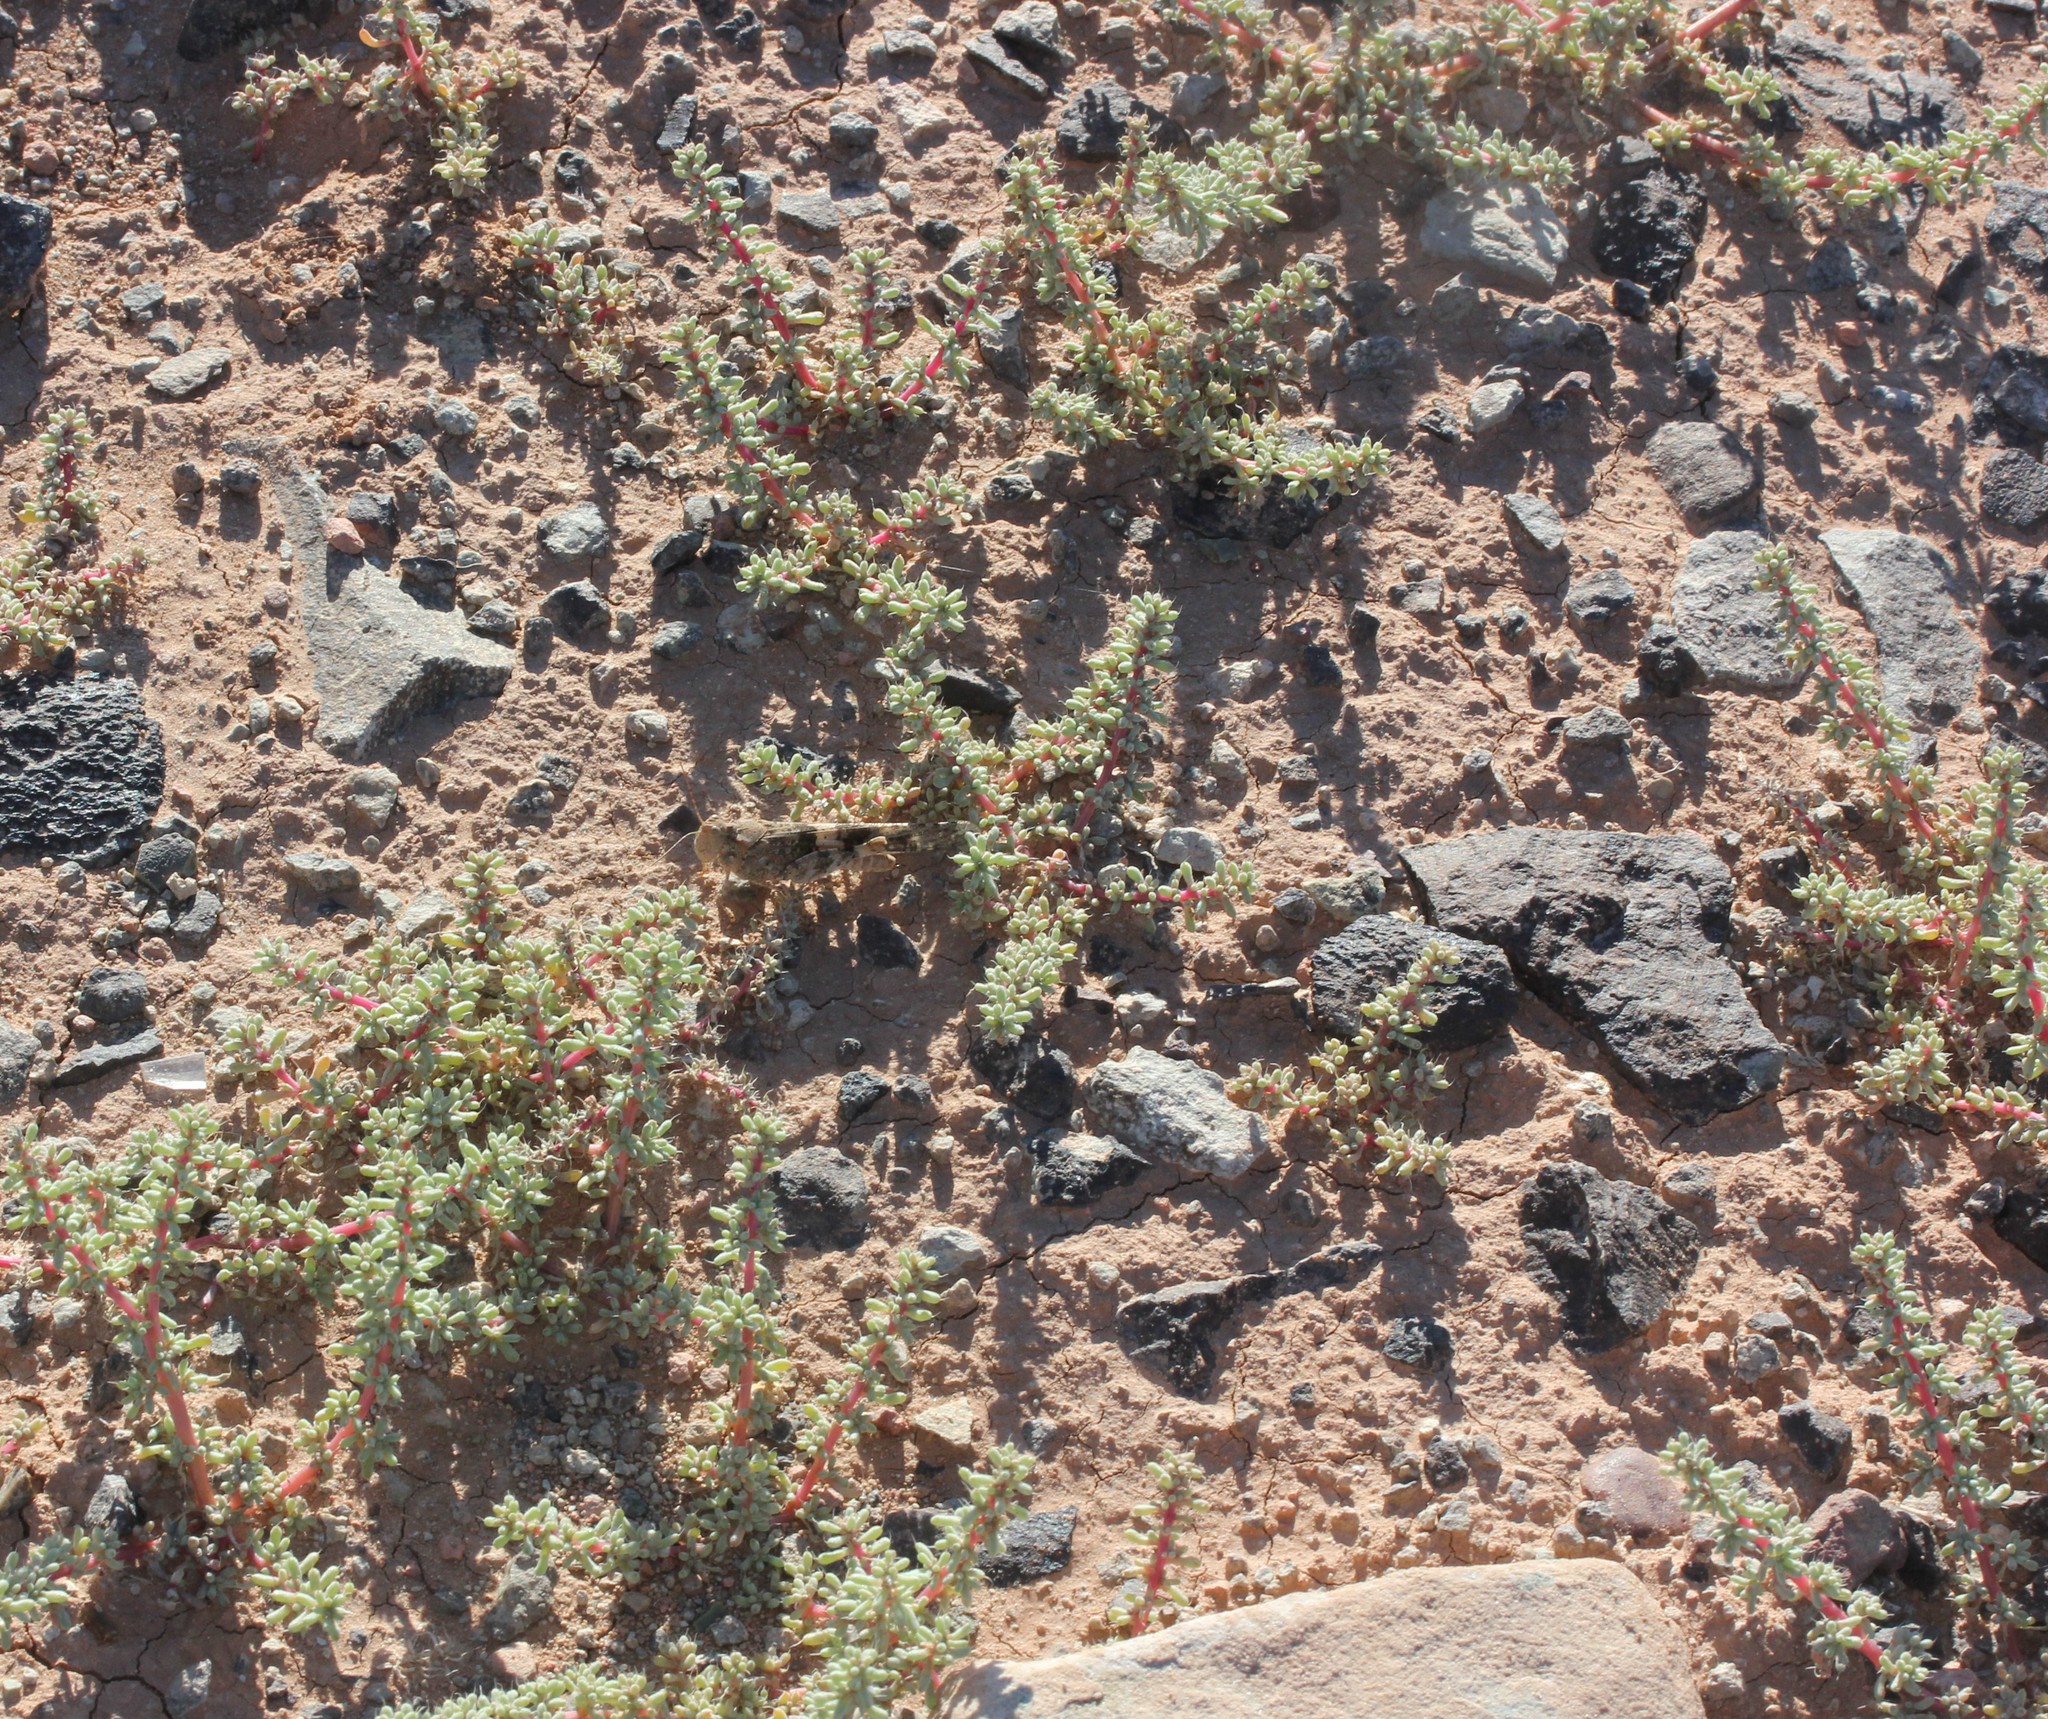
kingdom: Plantae
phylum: Tracheophyta
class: Magnoliopsida
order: Caryophyllales
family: Amaranthaceae
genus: Halogeton
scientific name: Halogeton glomeratus
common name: Saltlover
